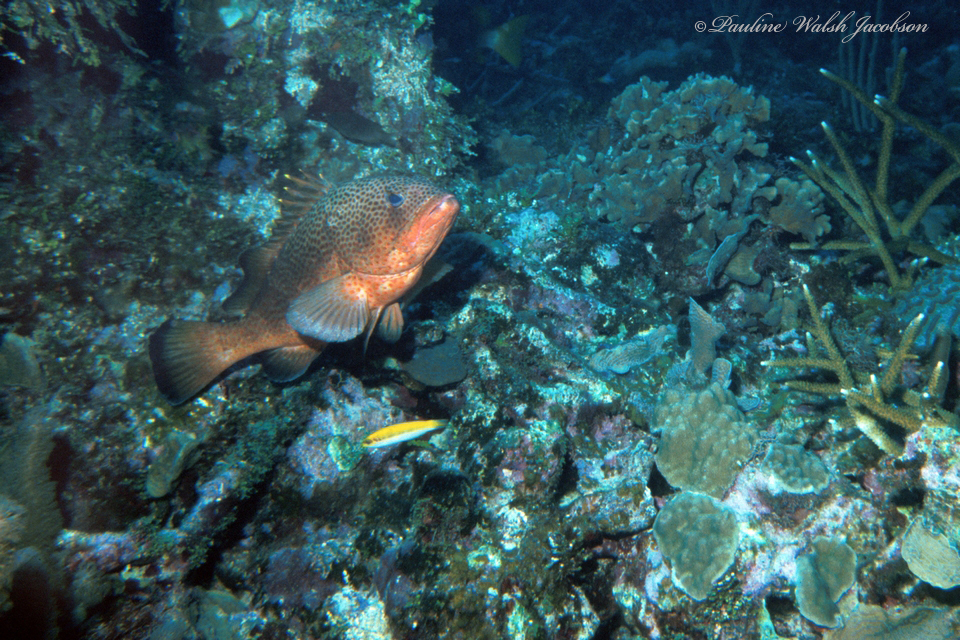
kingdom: Animalia
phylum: Chordata
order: Perciformes
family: Serranidae
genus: Epinephelus
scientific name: Epinephelus guttatus
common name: Red hind
